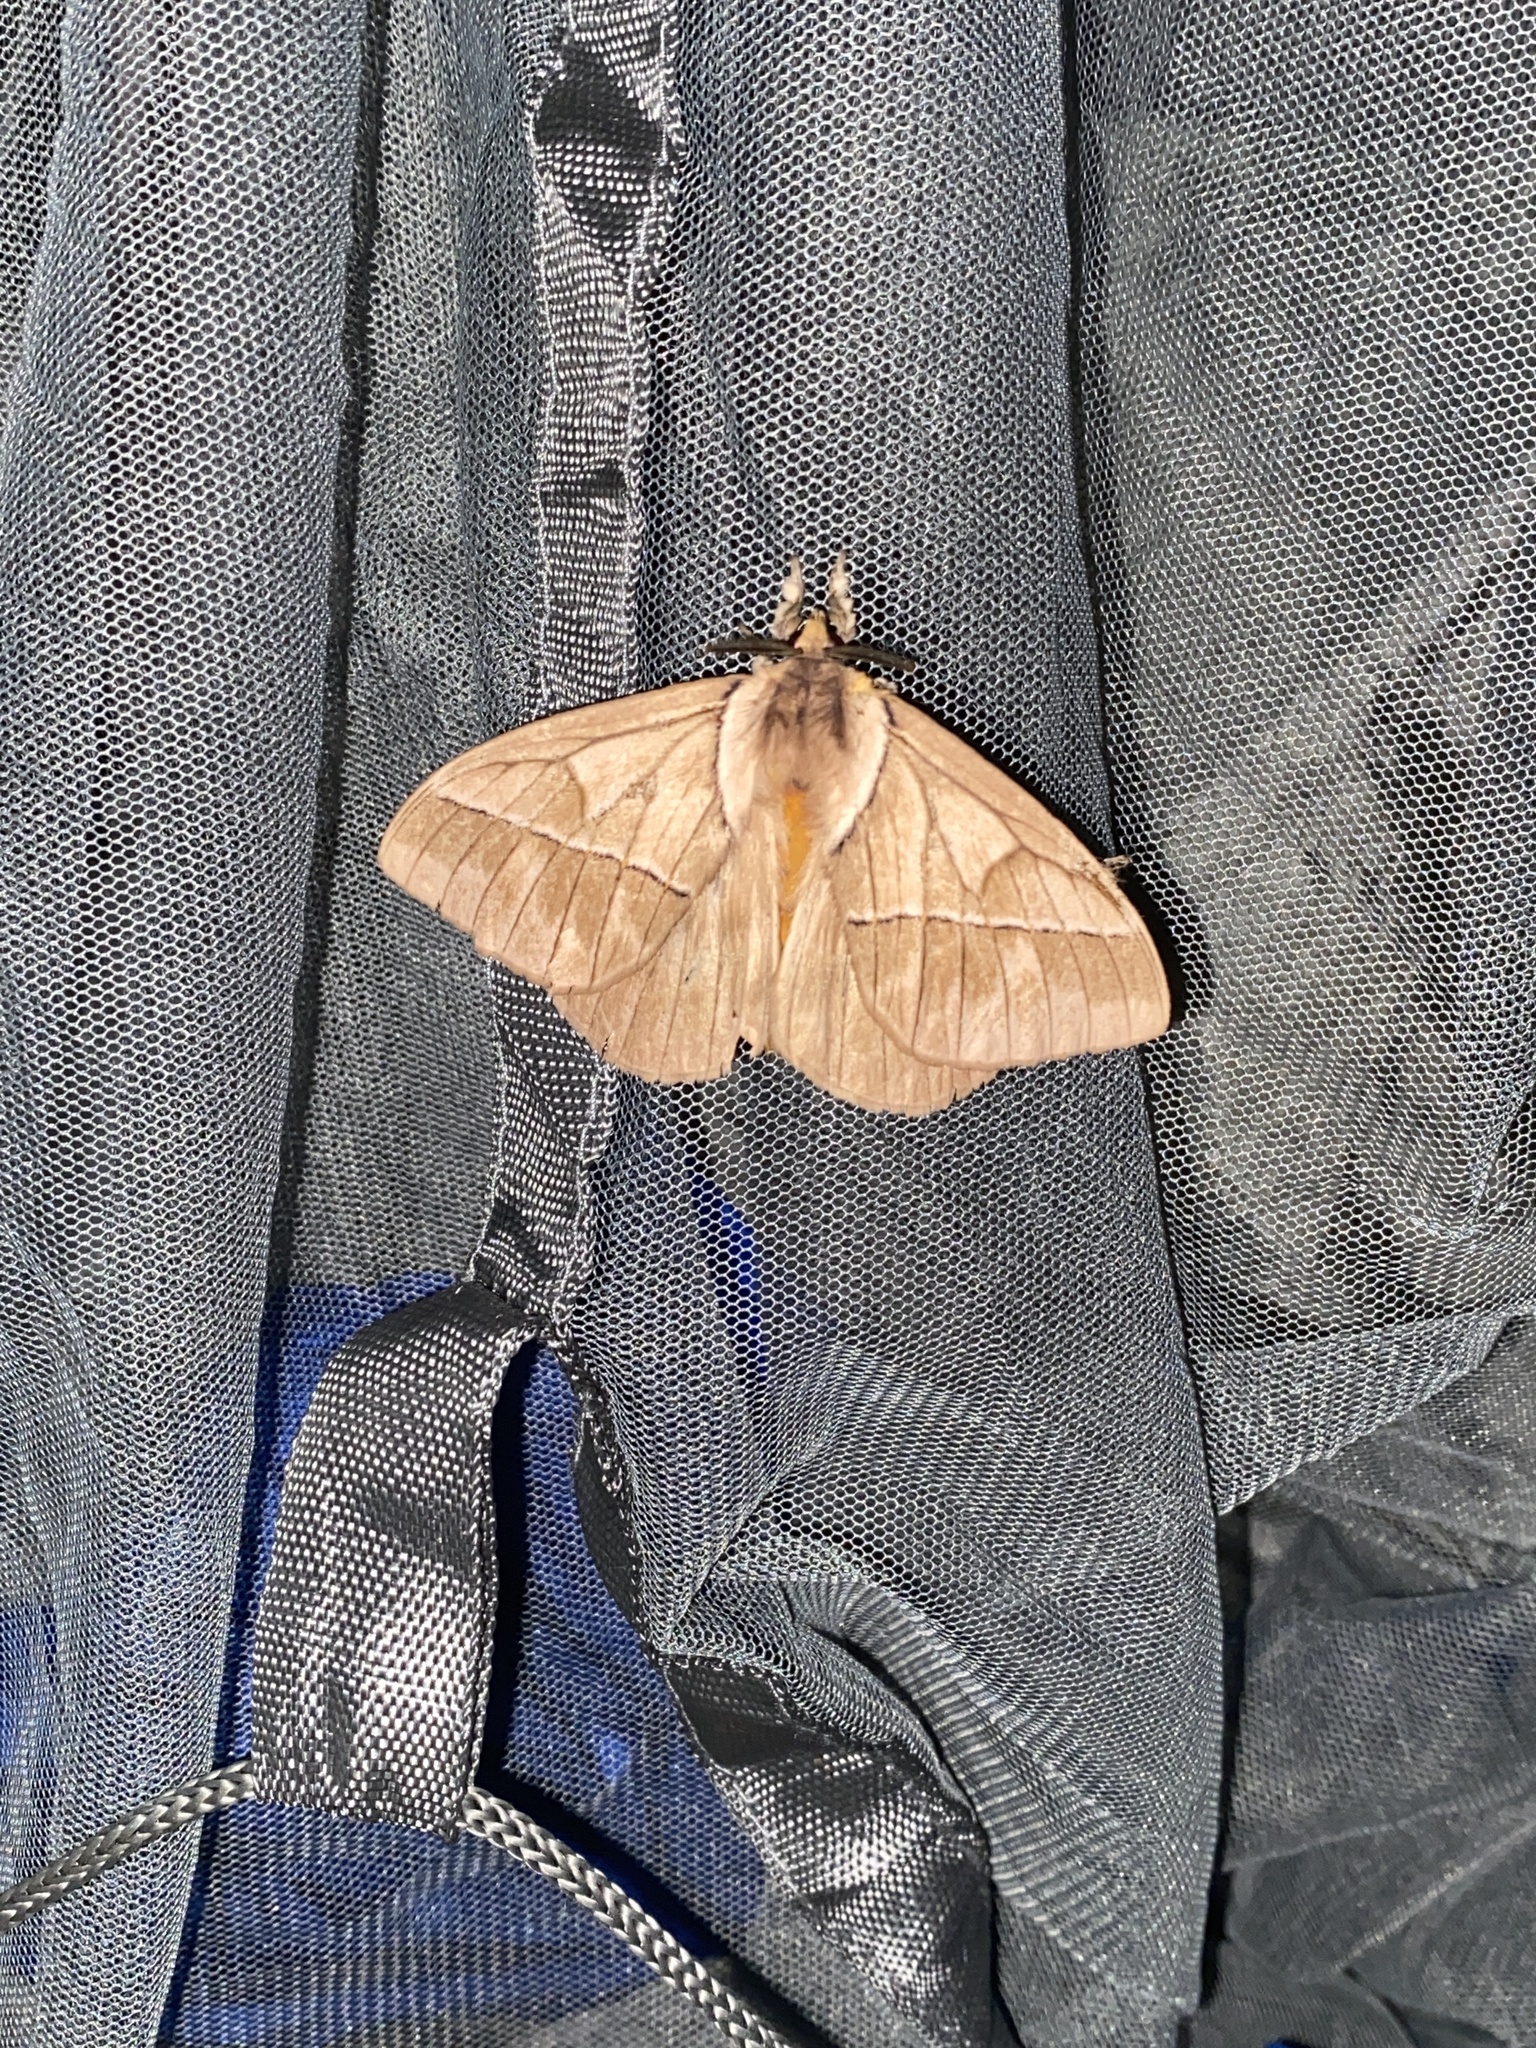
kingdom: Animalia
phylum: Arthropoda
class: Insecta
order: Lepidoptera
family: Saturniidae
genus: Pseudodirphia
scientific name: Pseudodirphia obliqua
